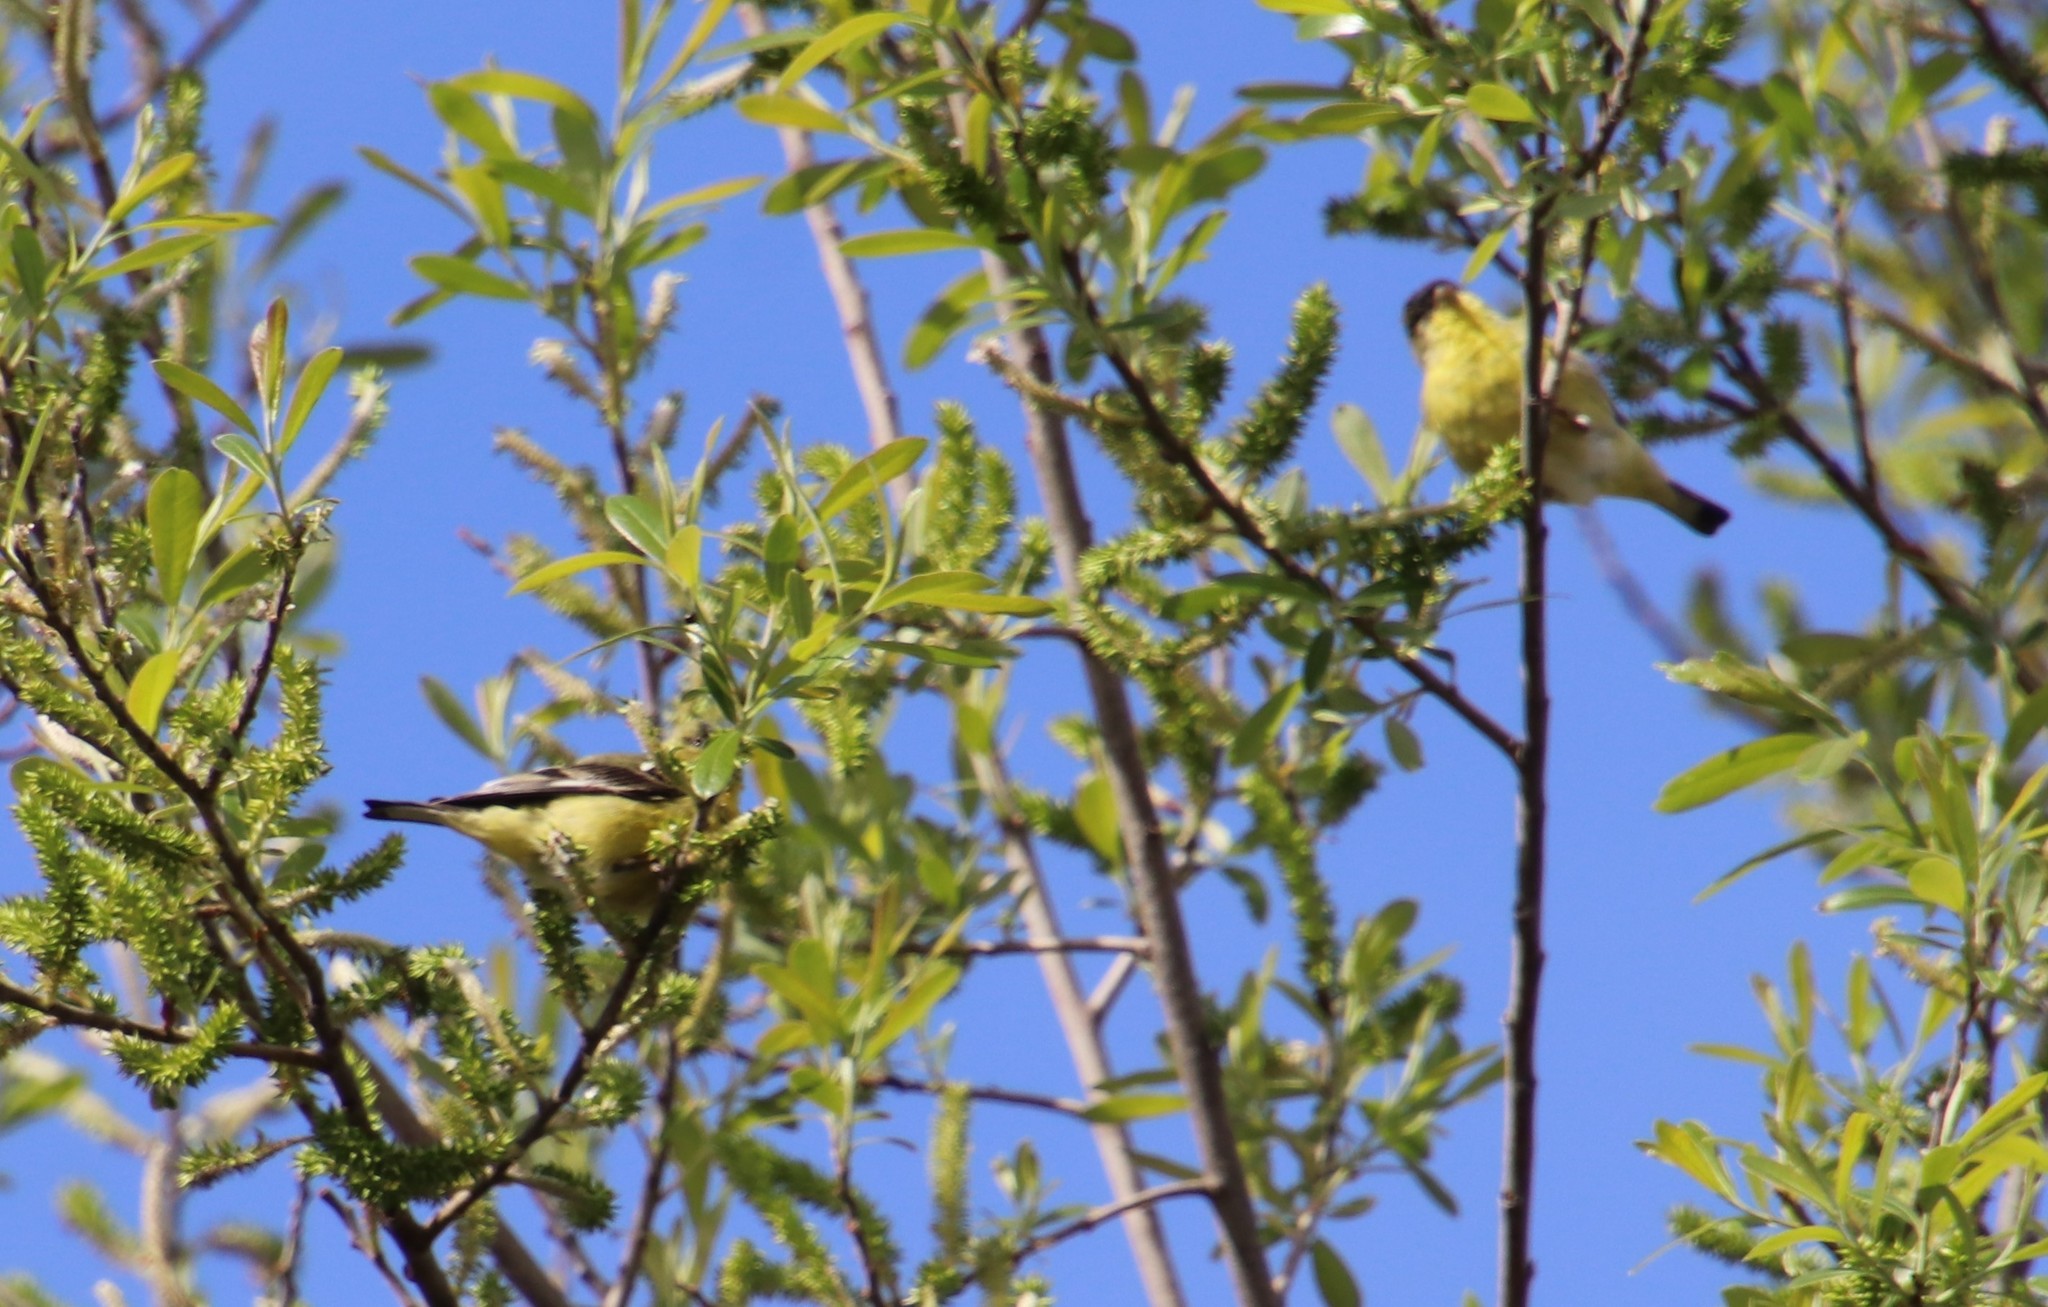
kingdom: Animalia
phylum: Chordata
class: Aves
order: Passeriformes
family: Fringillidae
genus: Spinus
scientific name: Spinus psaltria
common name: Lesser goldfinch
